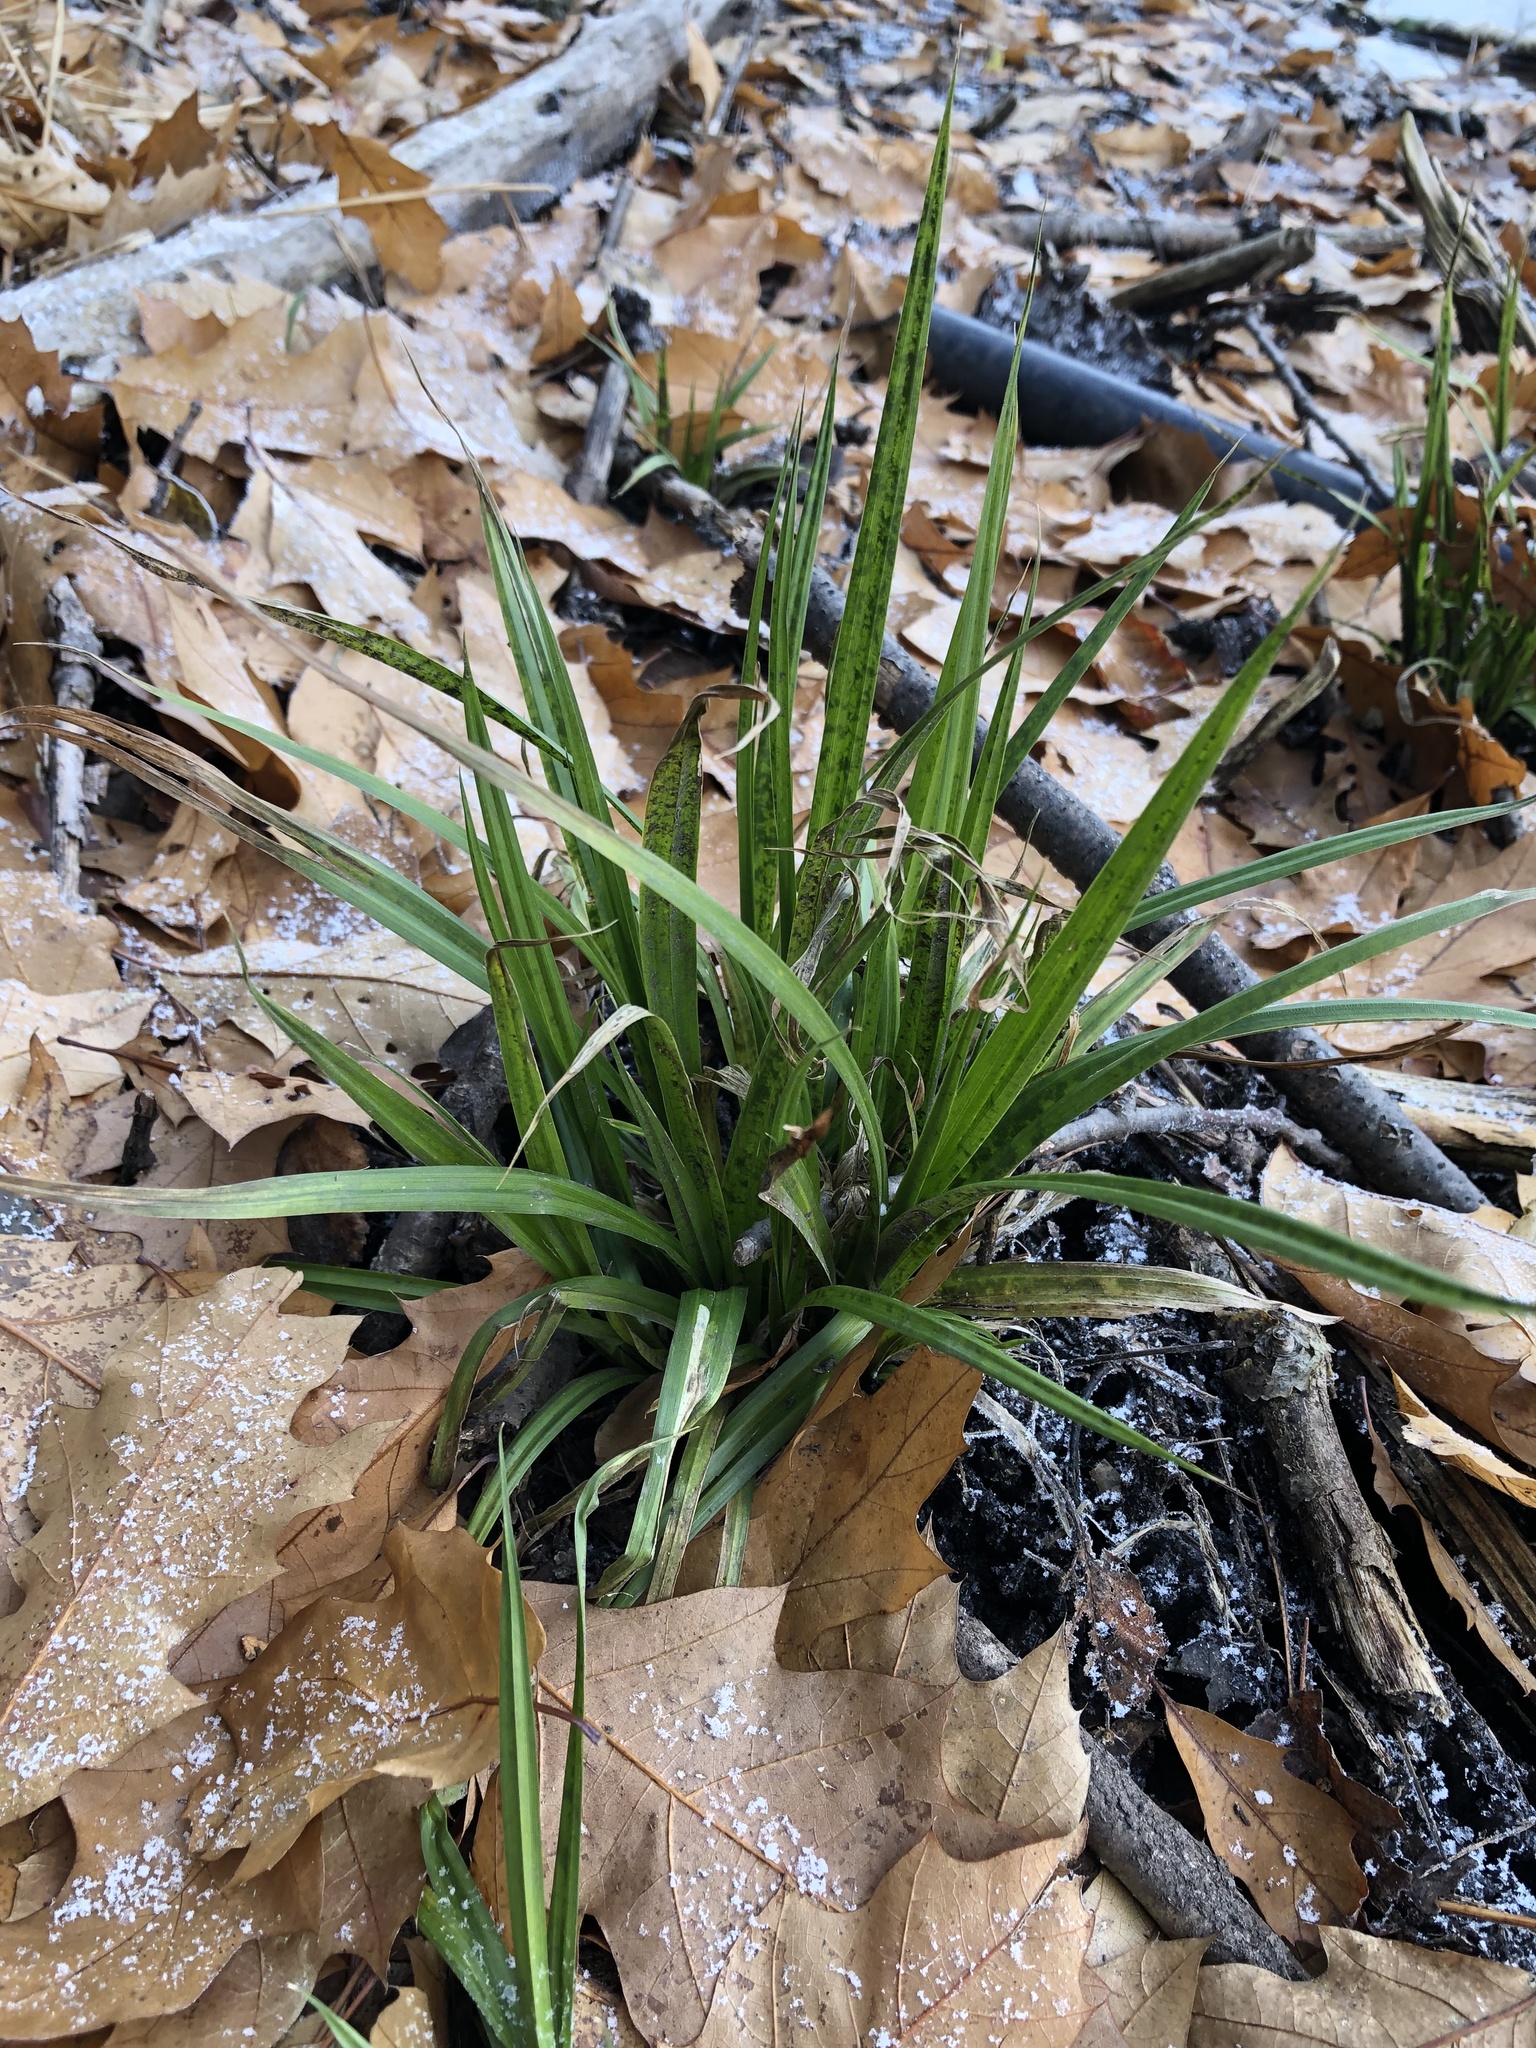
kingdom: Plantae
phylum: Tracheophyta
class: Liliopsida
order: Poales
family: Cyperaceae
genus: Carex
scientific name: Carex
